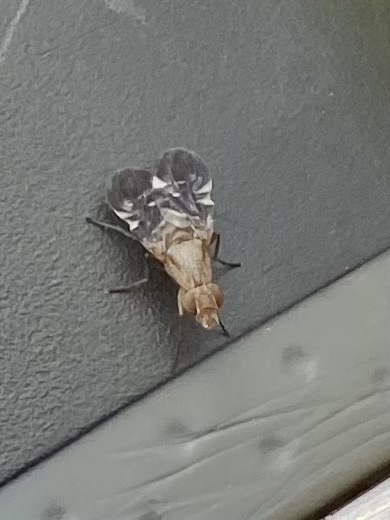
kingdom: Animalia
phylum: Arthropoda
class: Insecta
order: Diptera
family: Ulidiidae
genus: Delphinia
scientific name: Delphinia picta
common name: Common picture-winged fly
